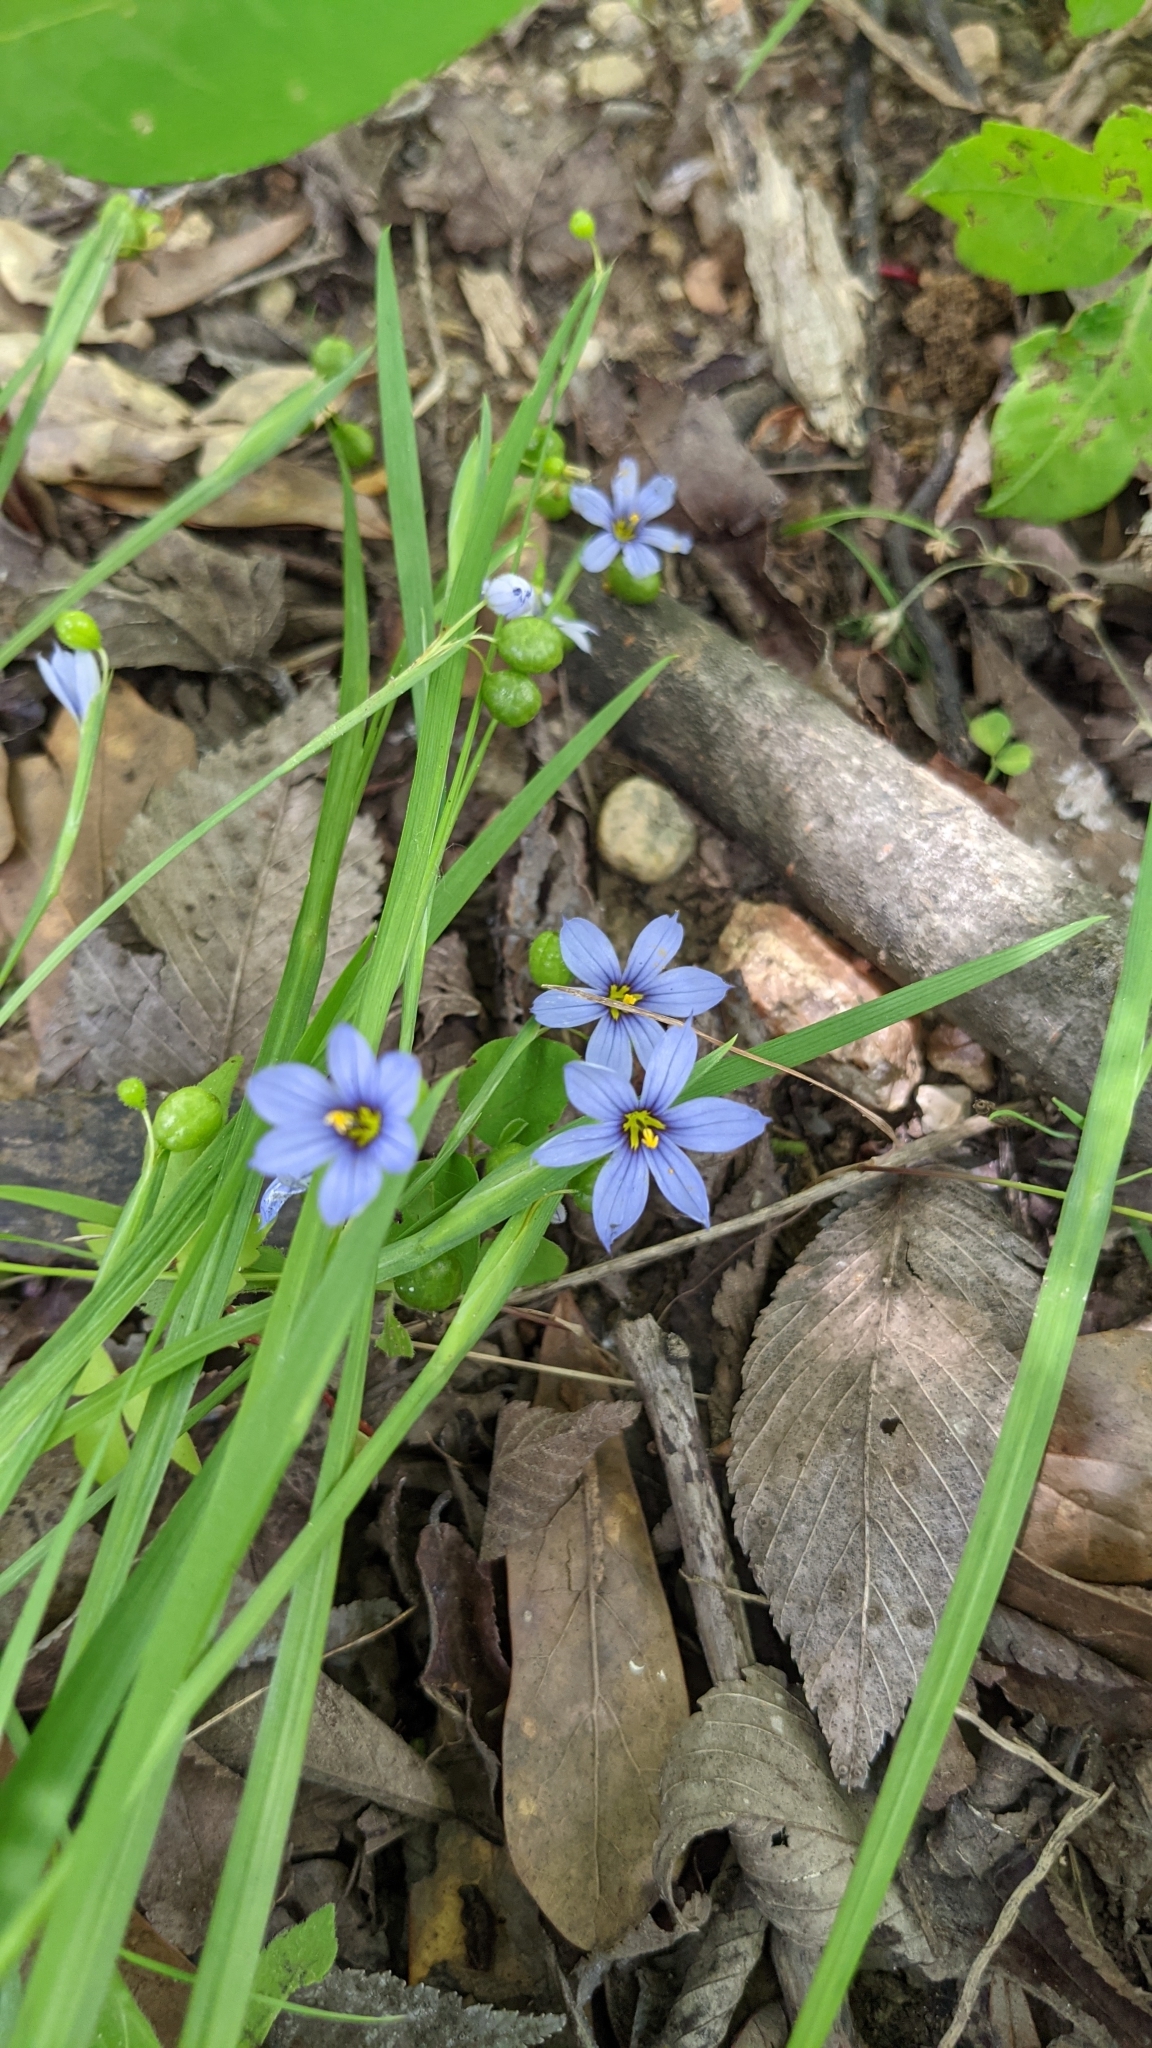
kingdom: Plantae
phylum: Tracheophyta
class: Liliopsida
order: Asparagales
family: Iridaceae
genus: Sisyrinchium
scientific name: Sisyrinchium angustifolium
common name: Narrow-leaf blue-eyed-grass
